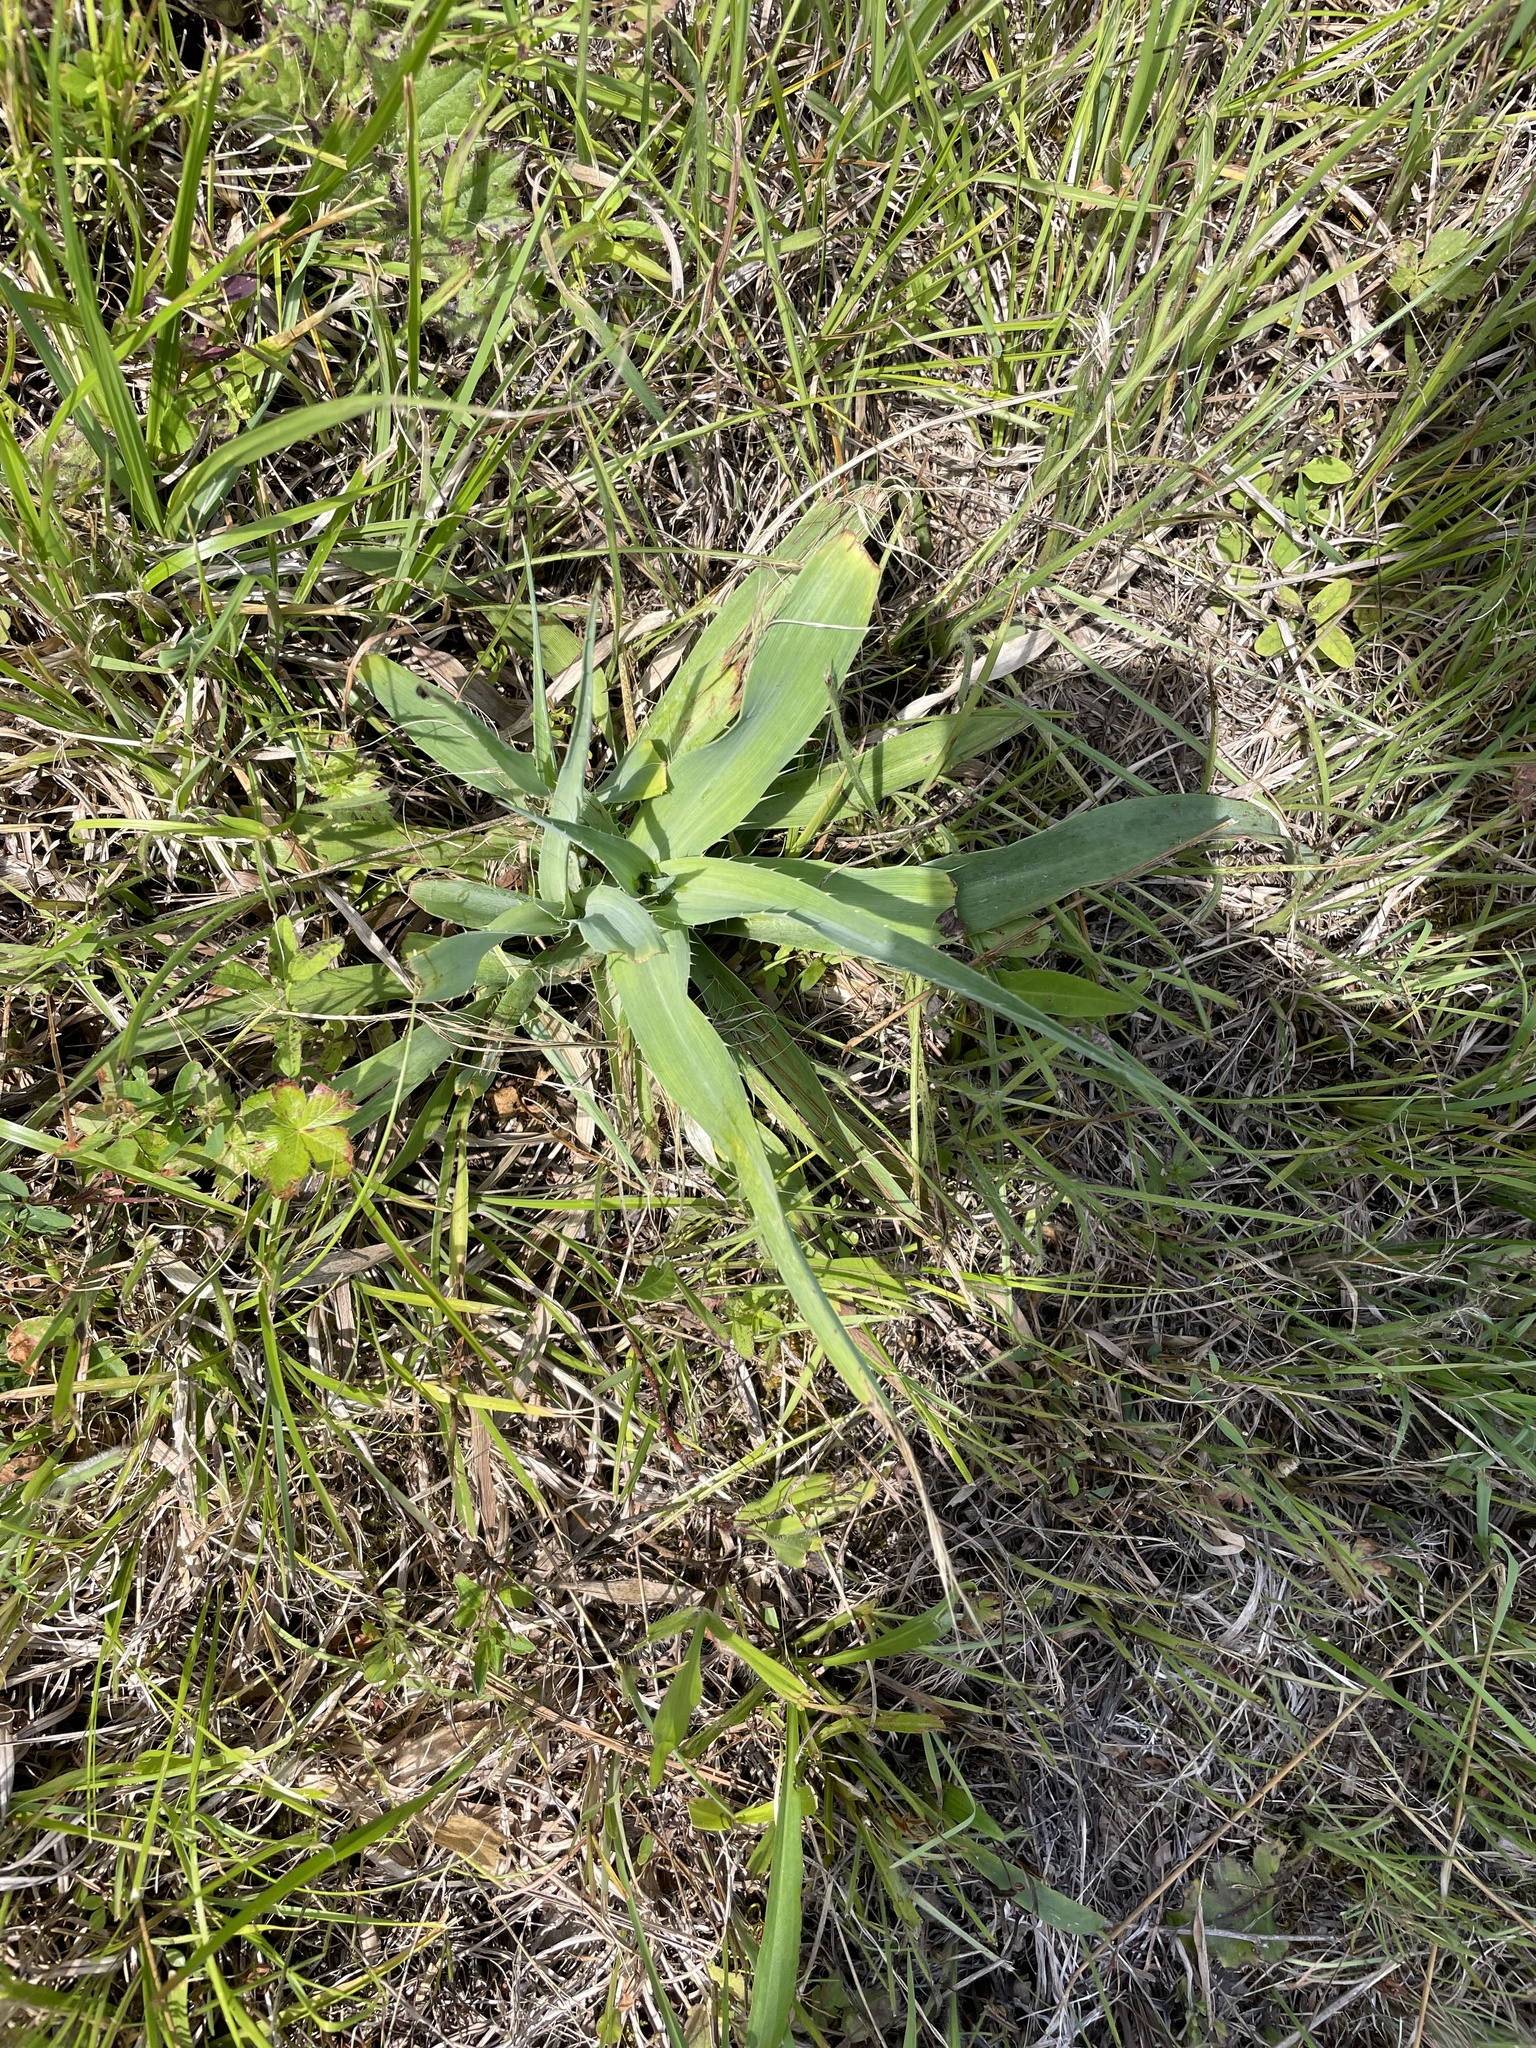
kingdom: Plantae
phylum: Tracheophyta
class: Magnoliopsida
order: Apiales
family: Apiaceae
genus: Eryngium
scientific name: Eryngium yuccifolium
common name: Button eryngo
